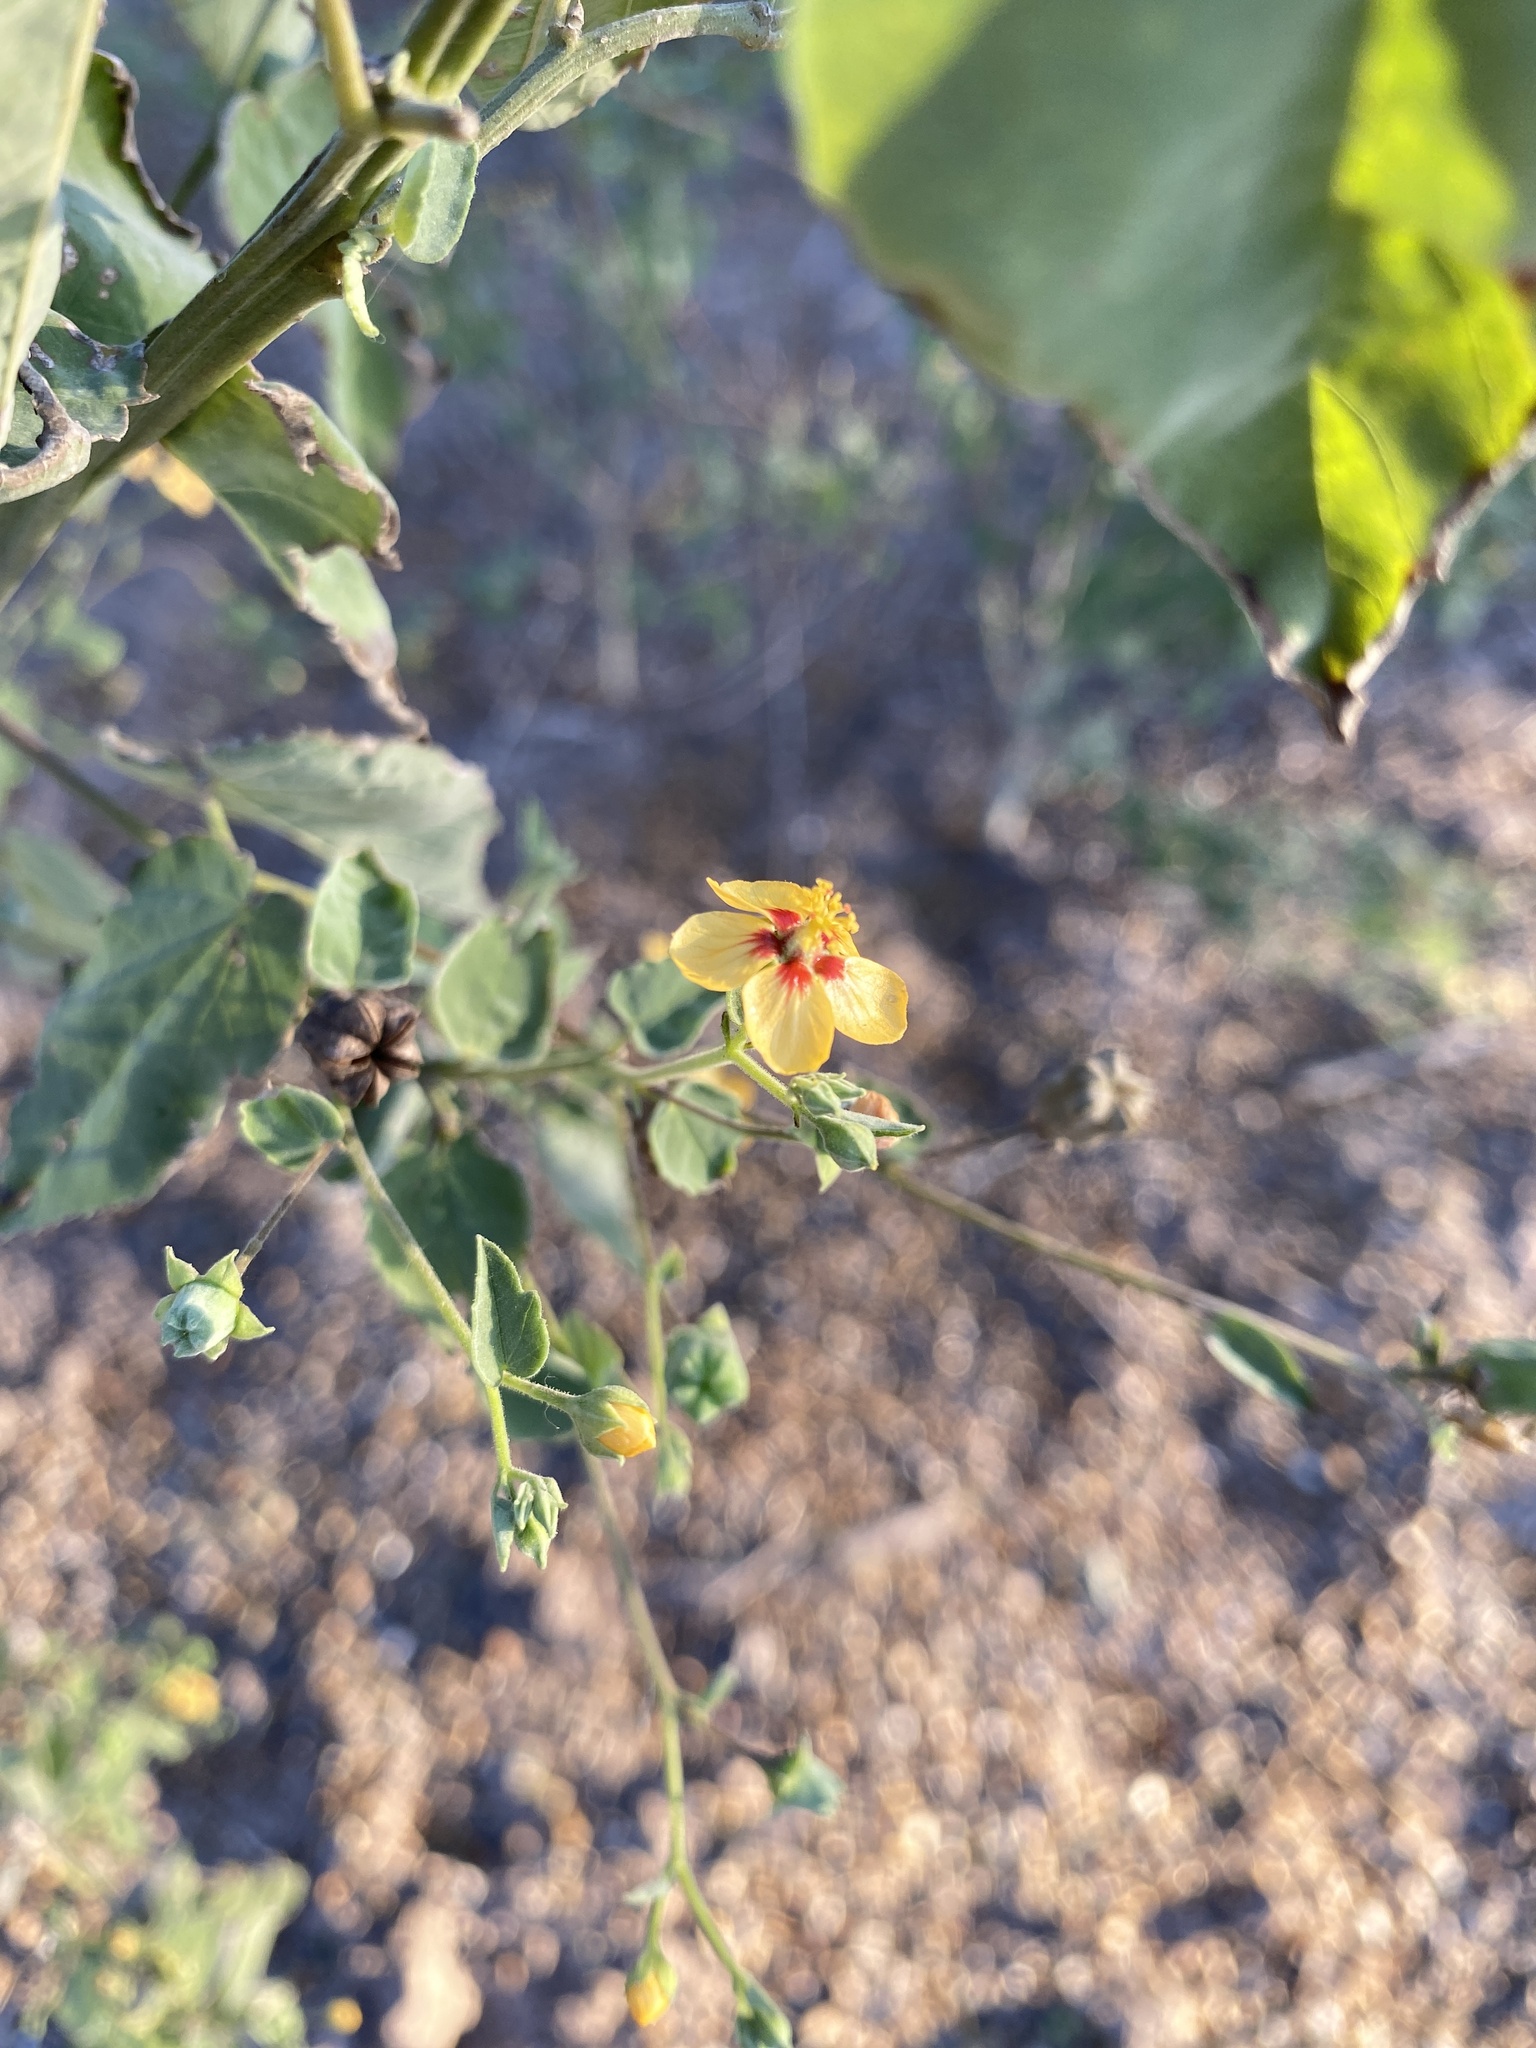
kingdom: Plantae
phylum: Tracheophyta
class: Magnoliopsida
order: Malvales
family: Malvaceae
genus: Abutilon
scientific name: Abutilon trisulcatum
